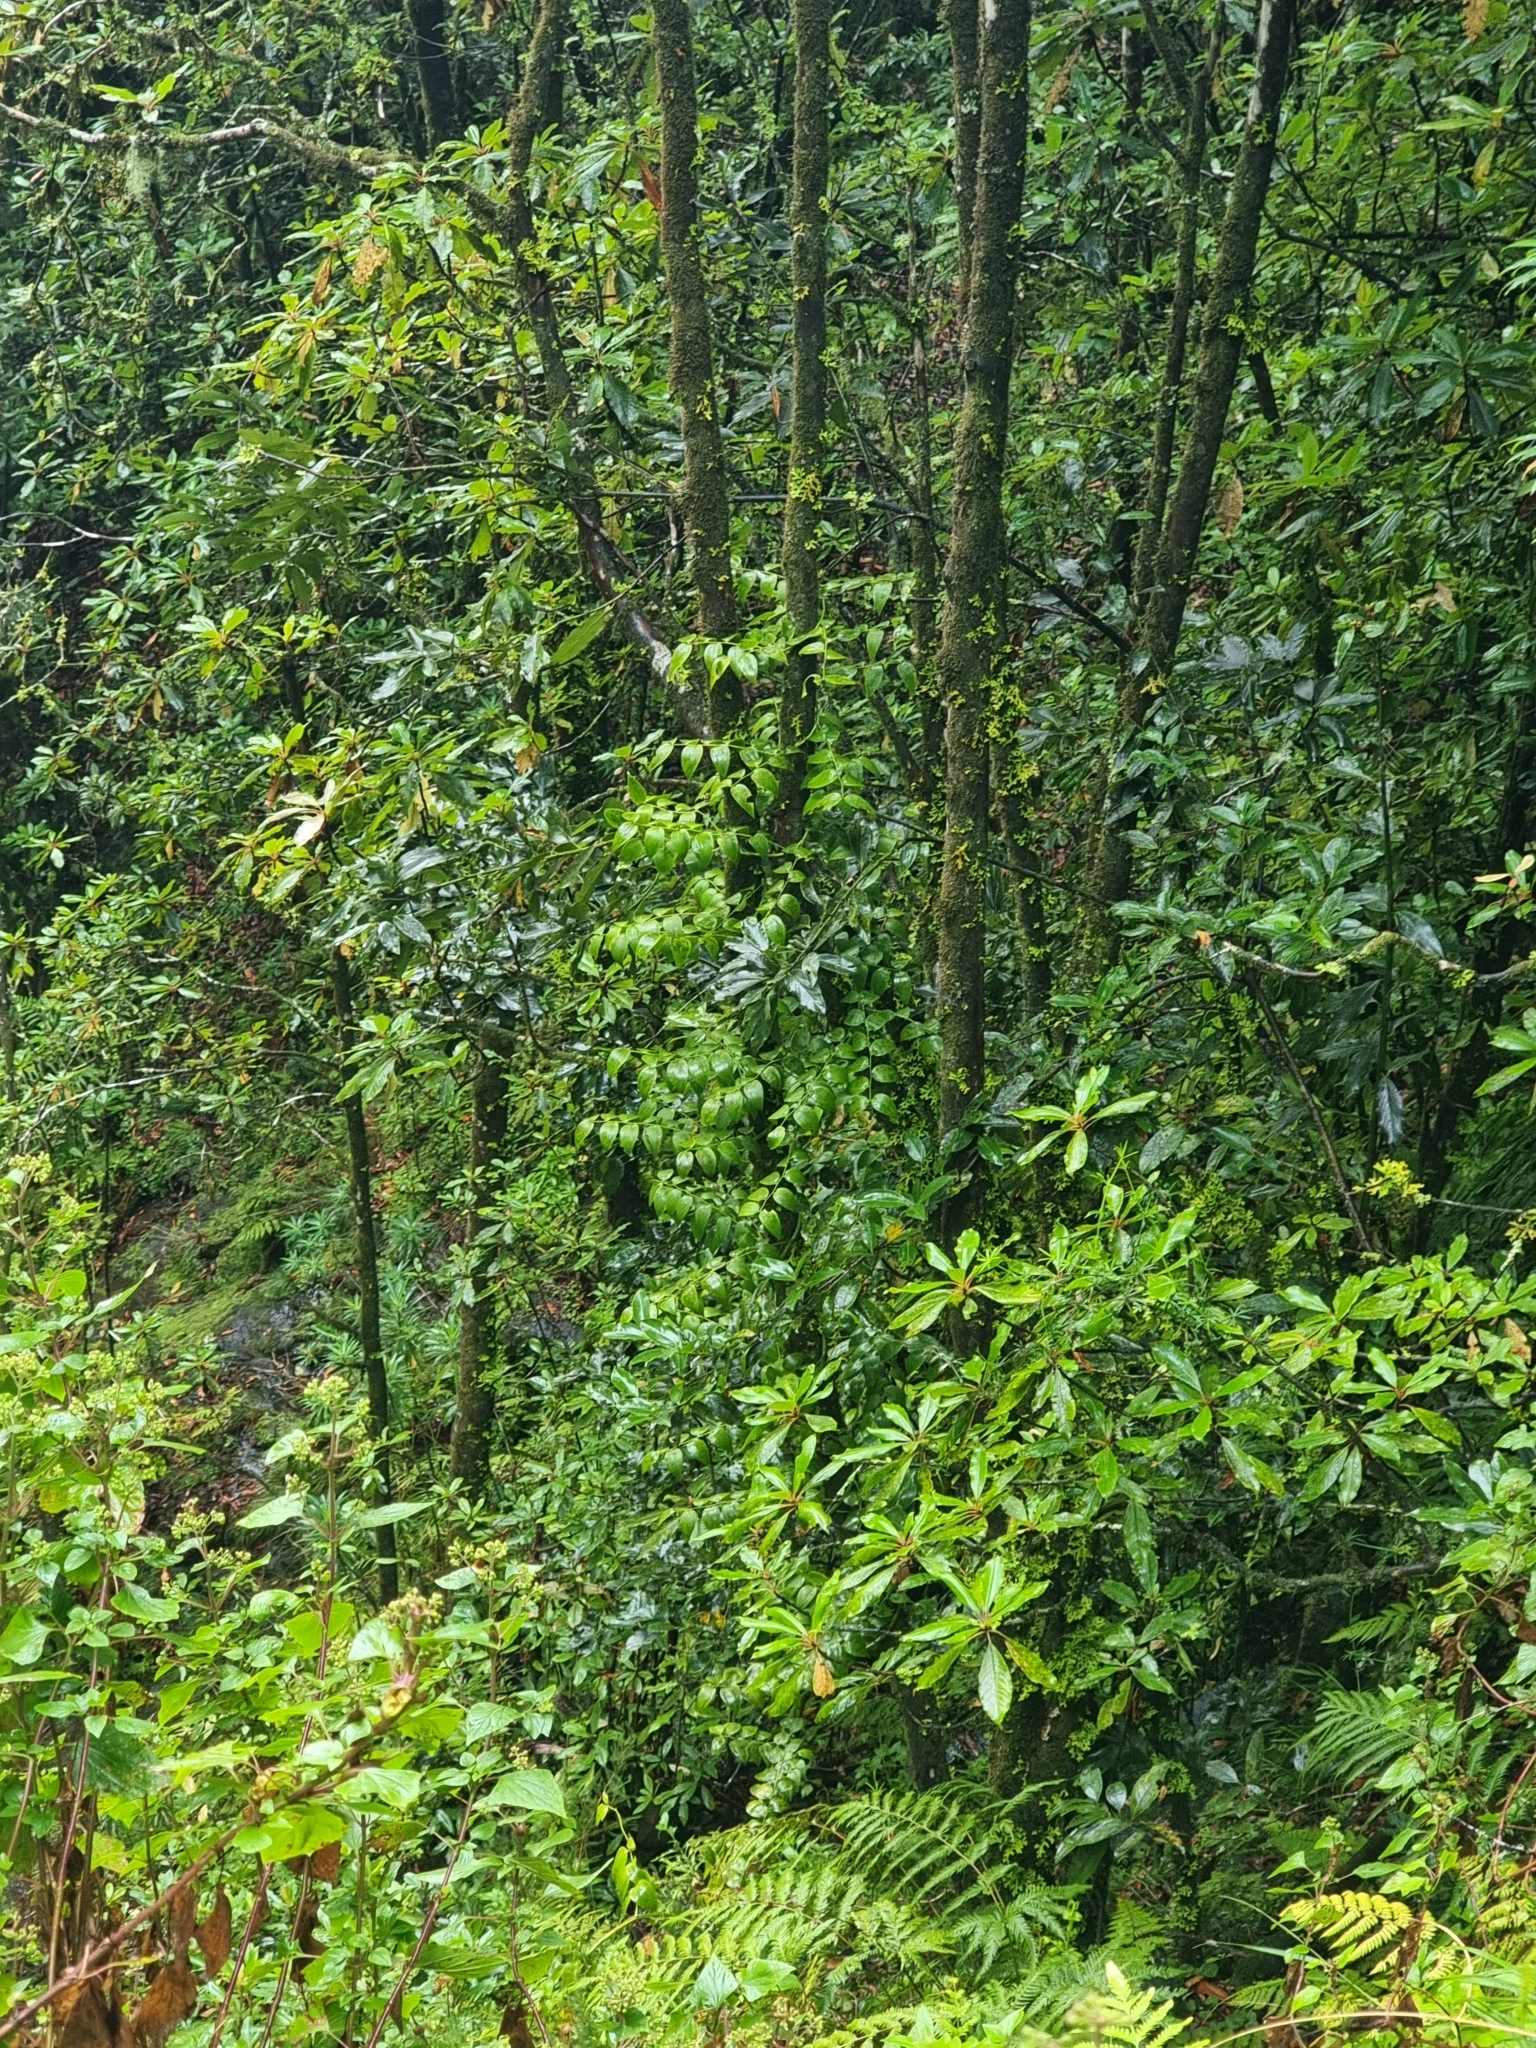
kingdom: Plantae
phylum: Tracheophyta
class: Liliopsida
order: Asparagales
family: Asparagaceae
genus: Semele
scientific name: Semele androgyna
